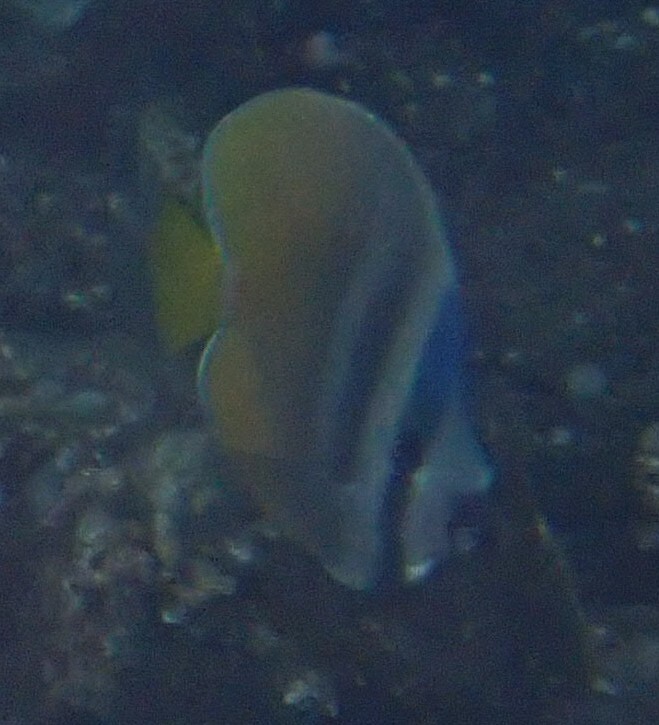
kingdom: Animalia
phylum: Chordata
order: Perciformes
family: Chaetodontidae
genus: Chaetodon
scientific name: Chaetodon kleinii
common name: Klein's butterflyfish
